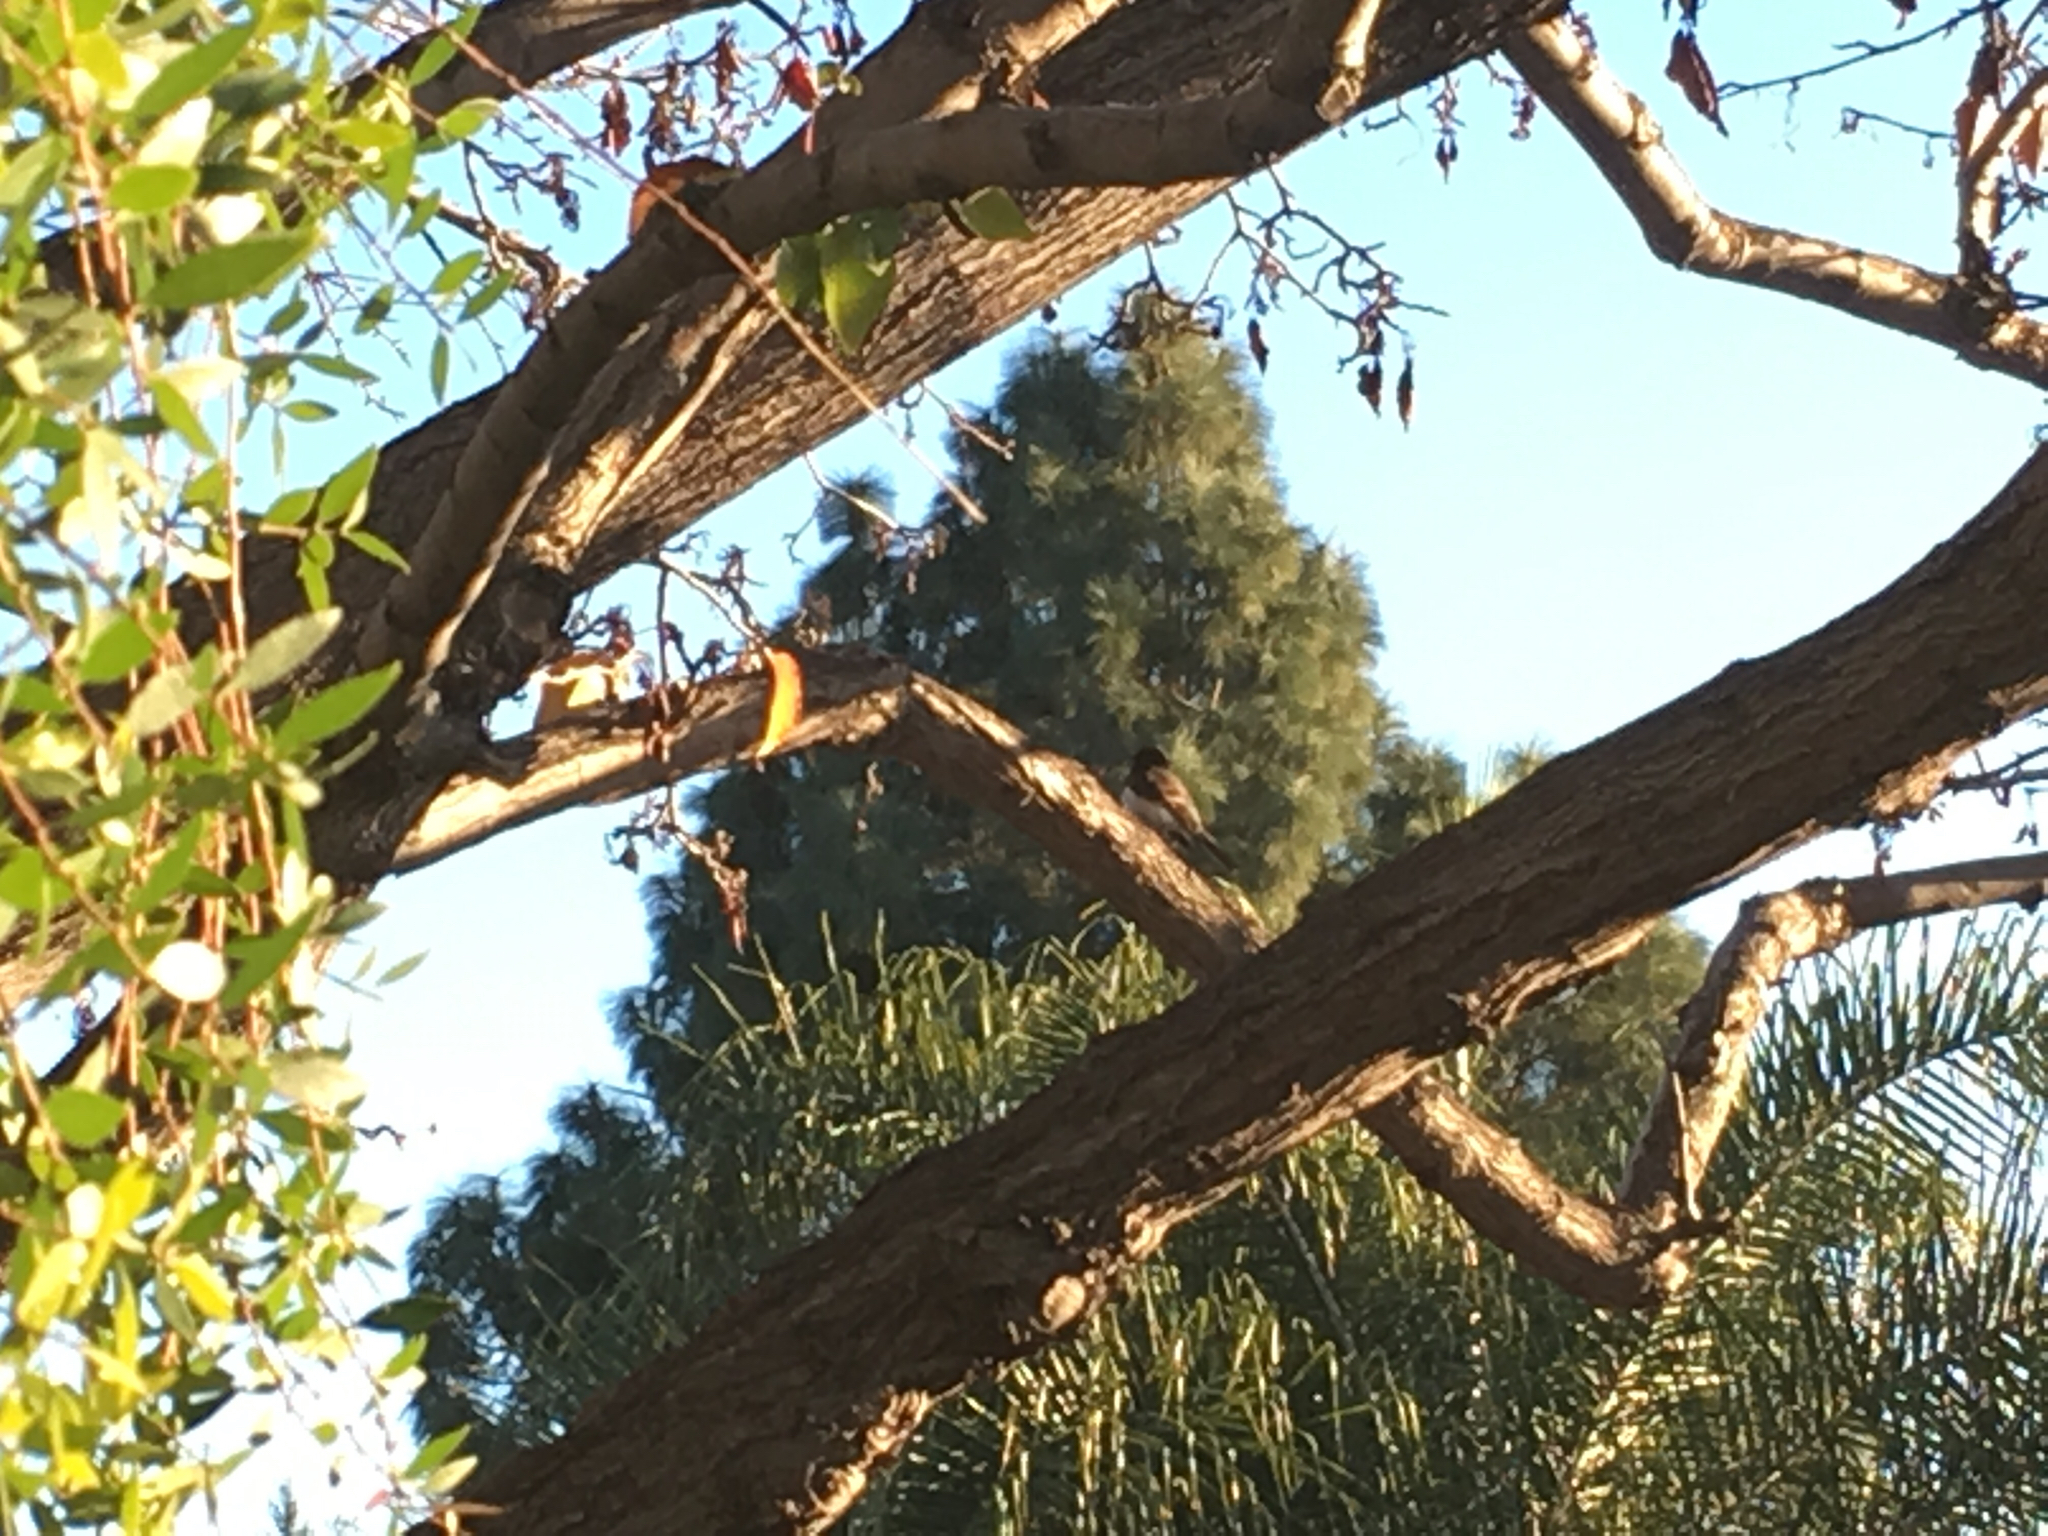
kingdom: Animalia
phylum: Chordata
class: Aves
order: Passeriformes
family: Tyrannidae
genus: Sayornis
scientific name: Sayornis nigricans
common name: Black phoebe
